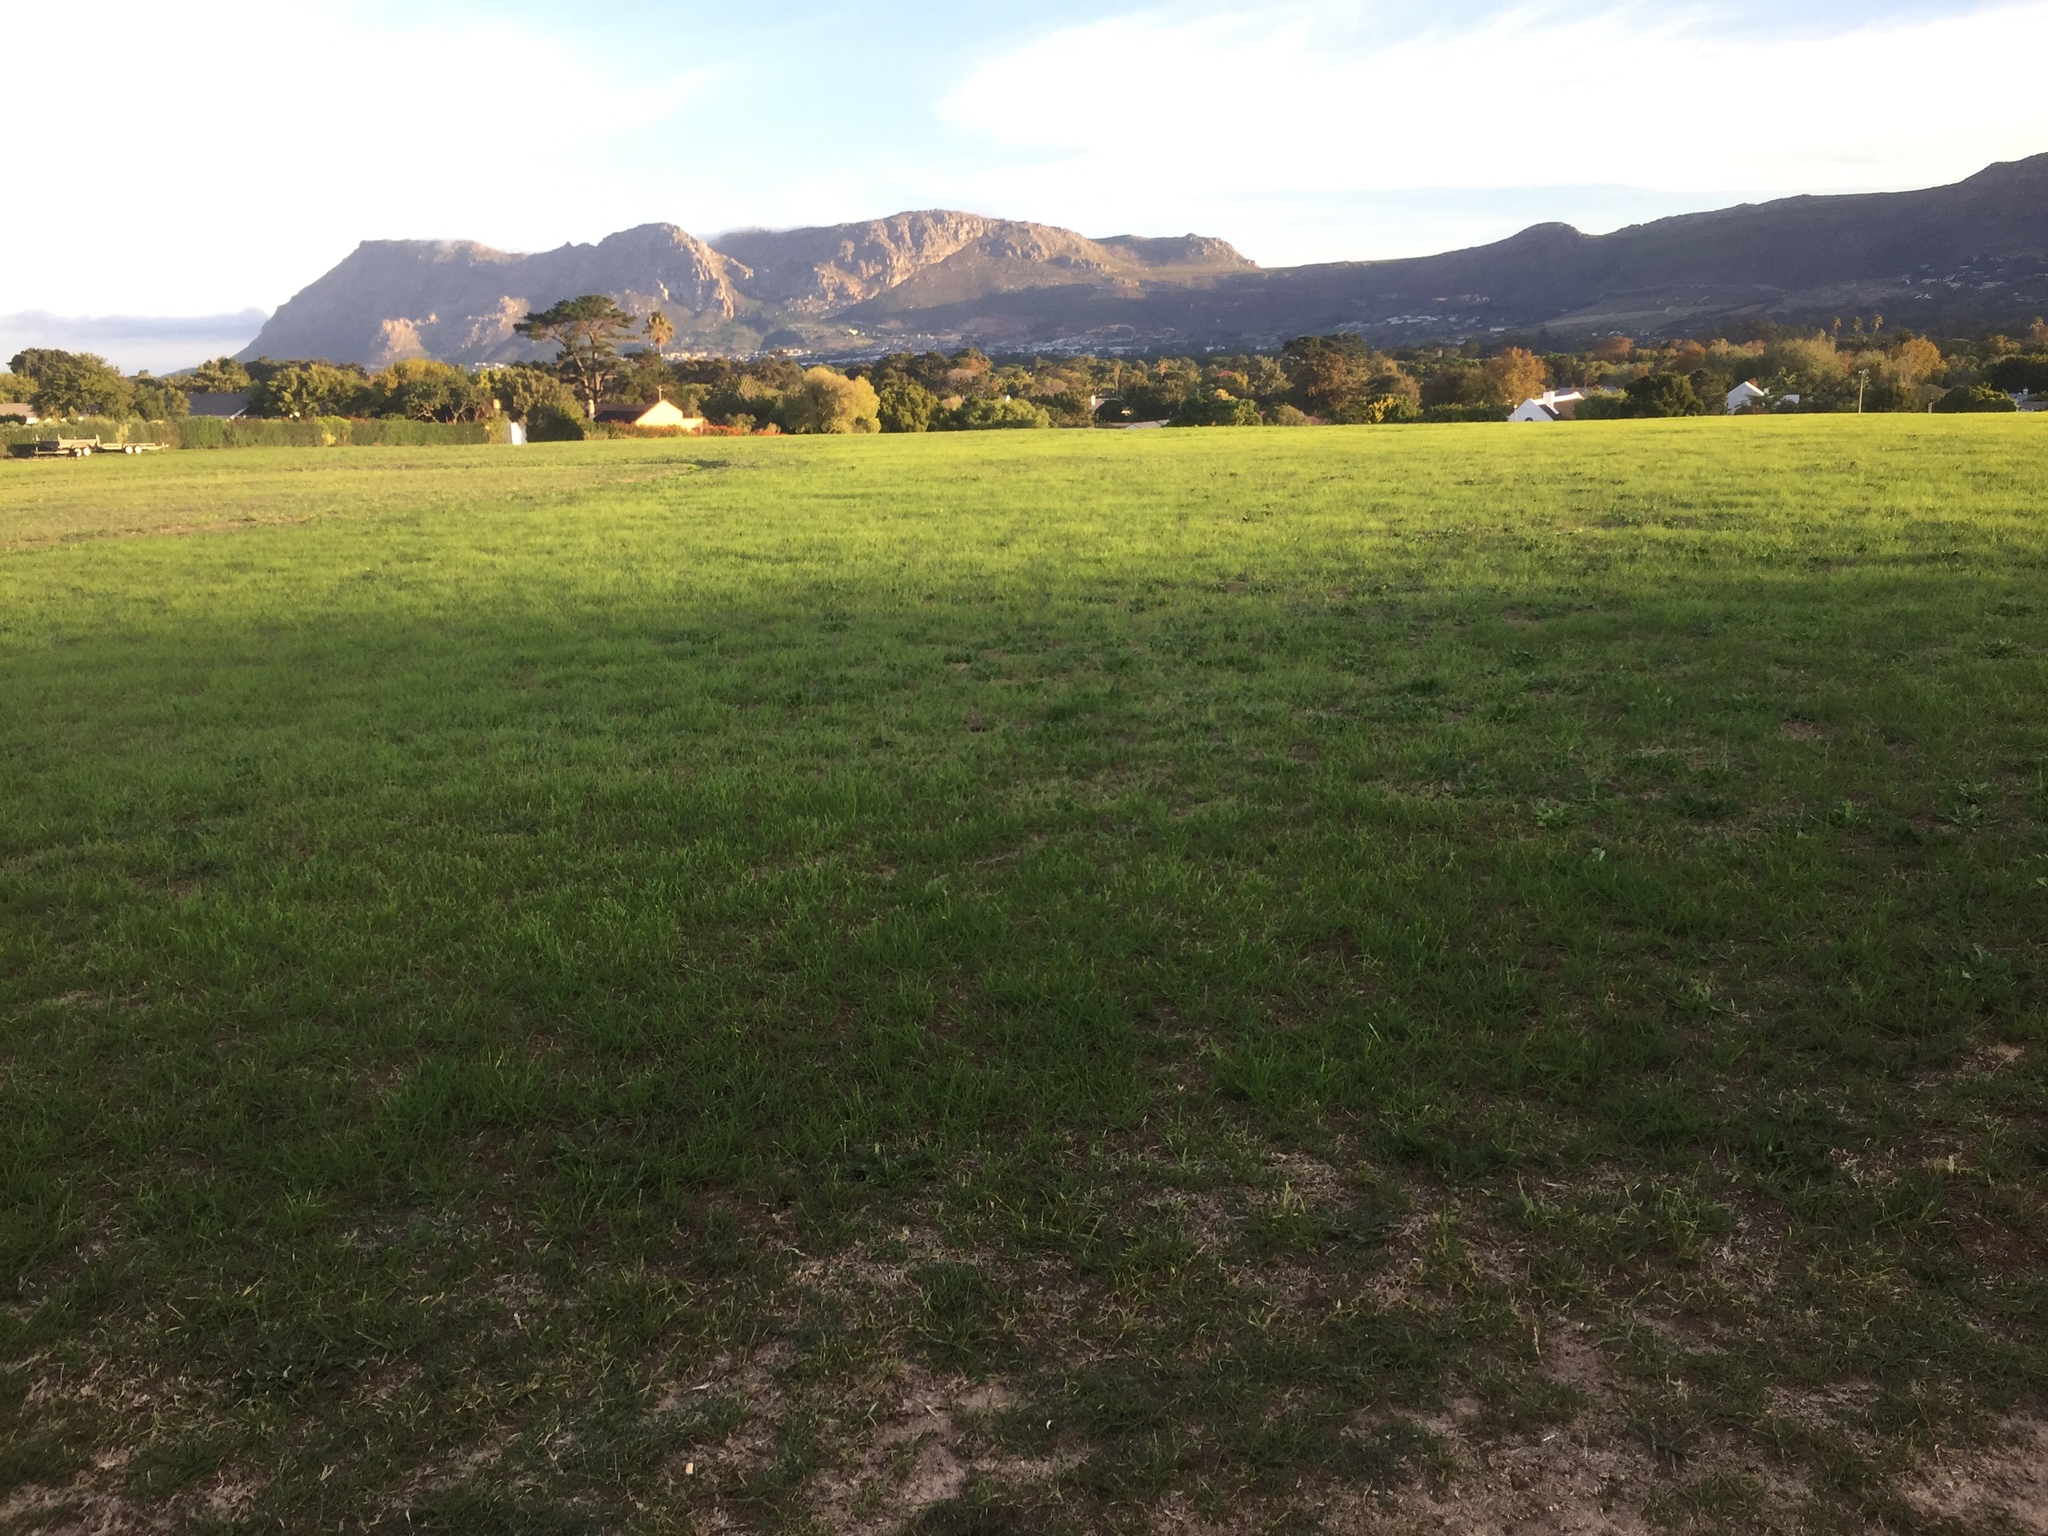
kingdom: Plantae
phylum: Tracheophyta
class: Liliopsida
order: Poales
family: Poaceae
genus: Cenchrus
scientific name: Cenchrus clandestinus
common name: Kikuyugrass
